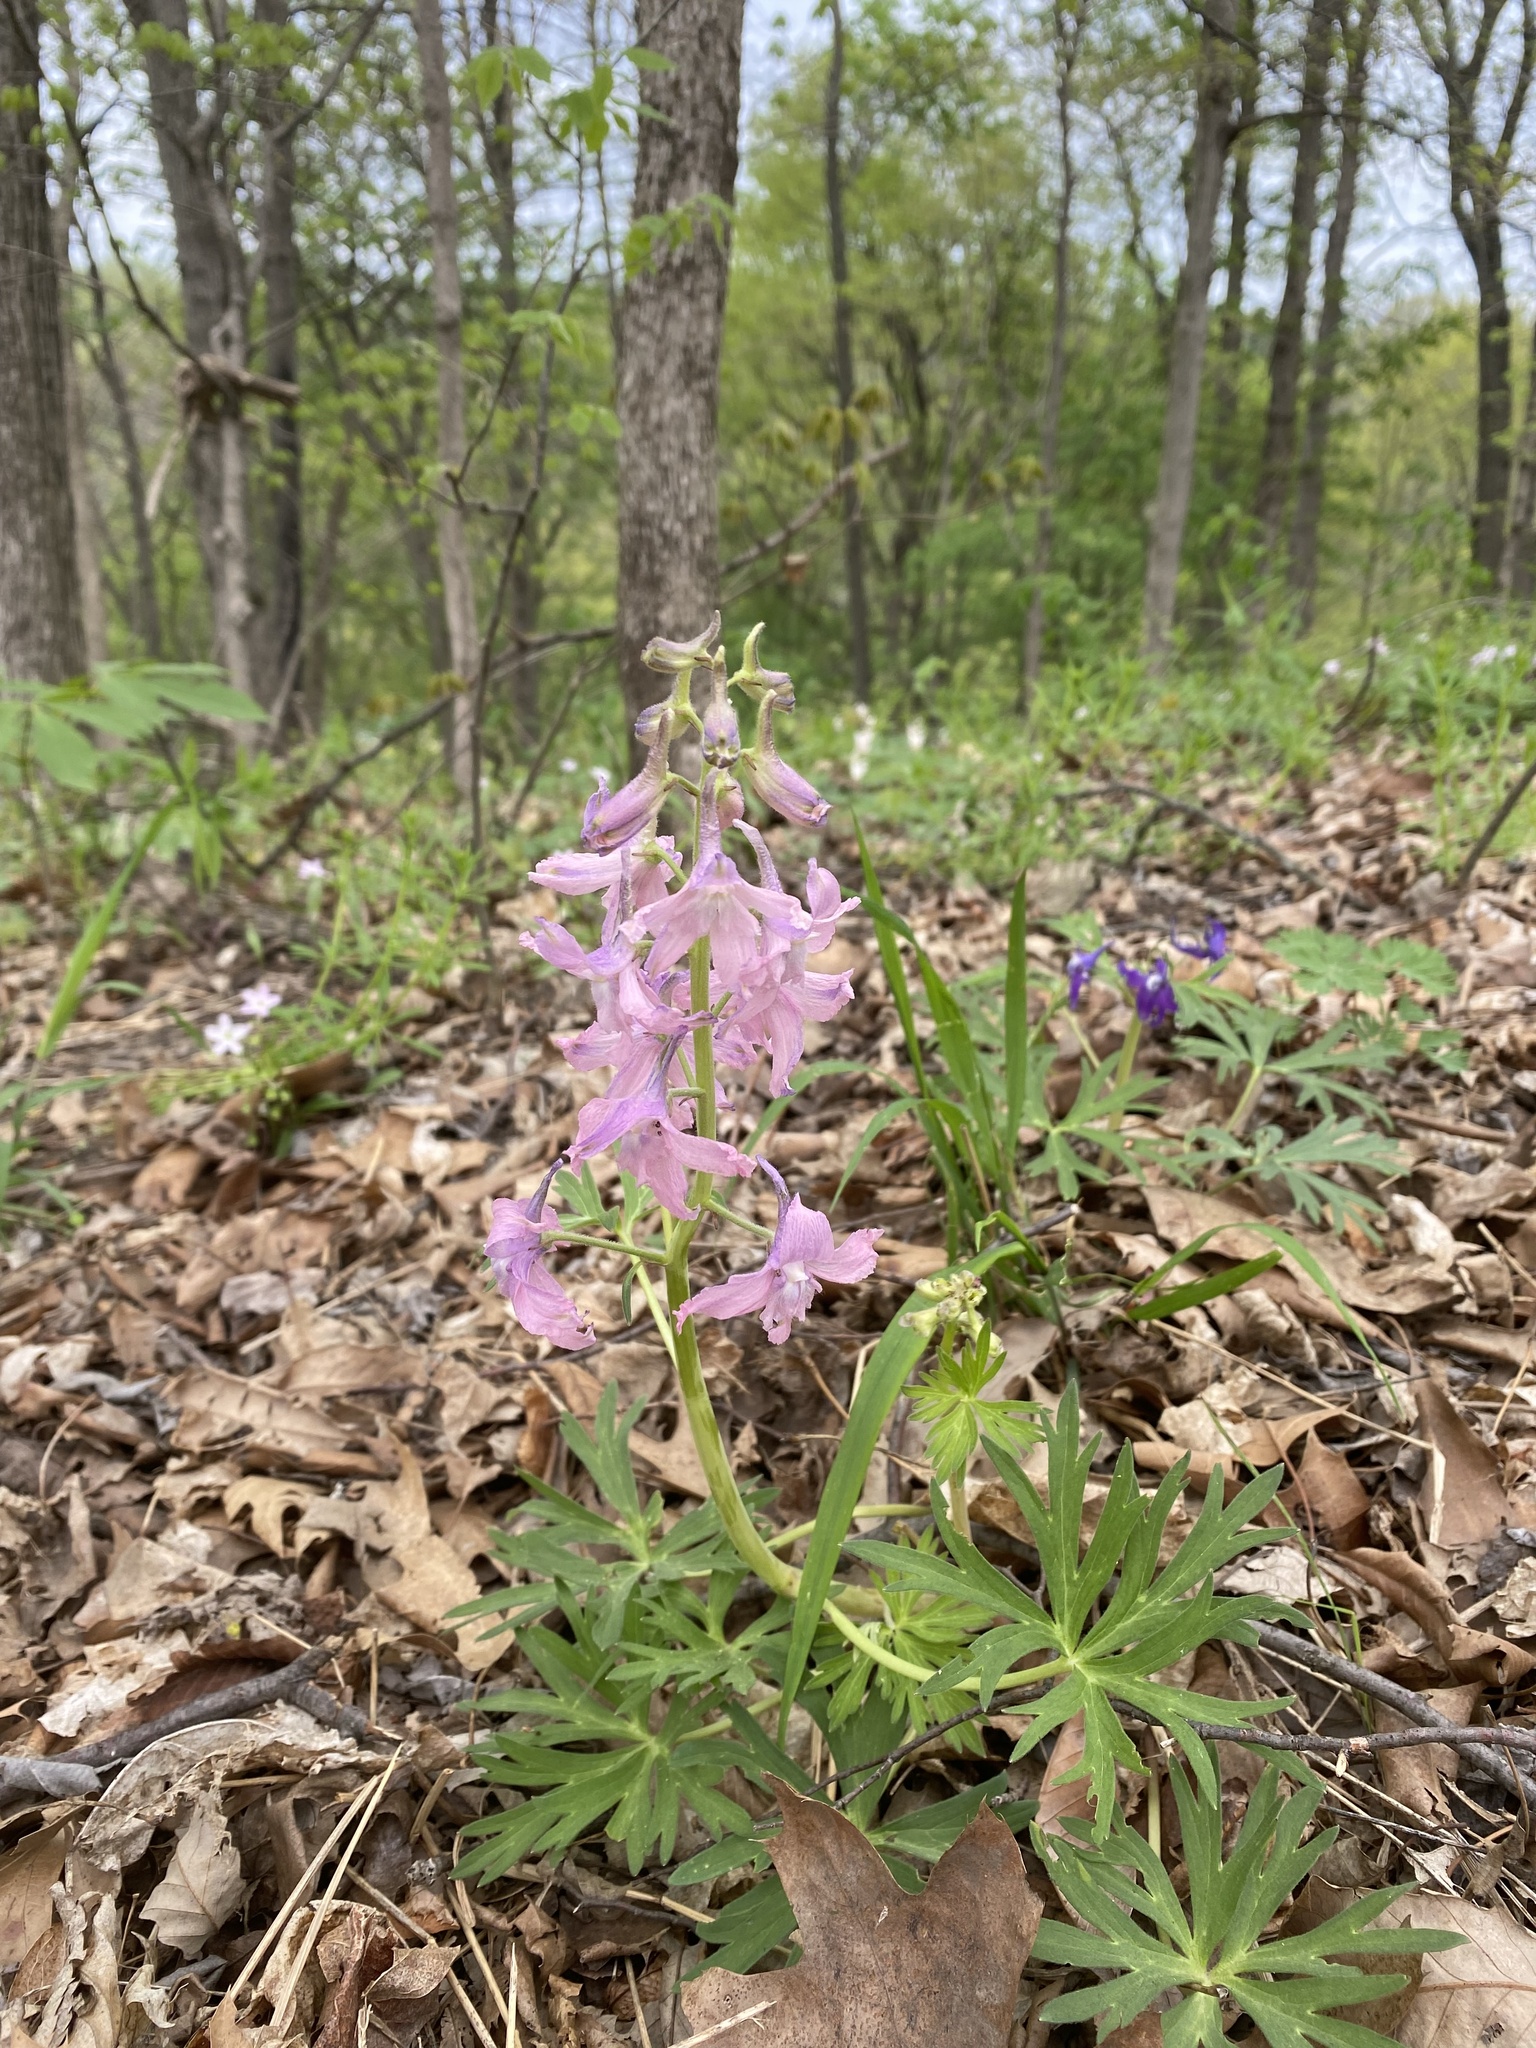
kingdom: Plantae
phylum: Tracheophyta
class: Magnoliopsida
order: Ranunculales
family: Ranunculaceae
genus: Delphinium
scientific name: Delphinium tricorne
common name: Dwarf larkspur
